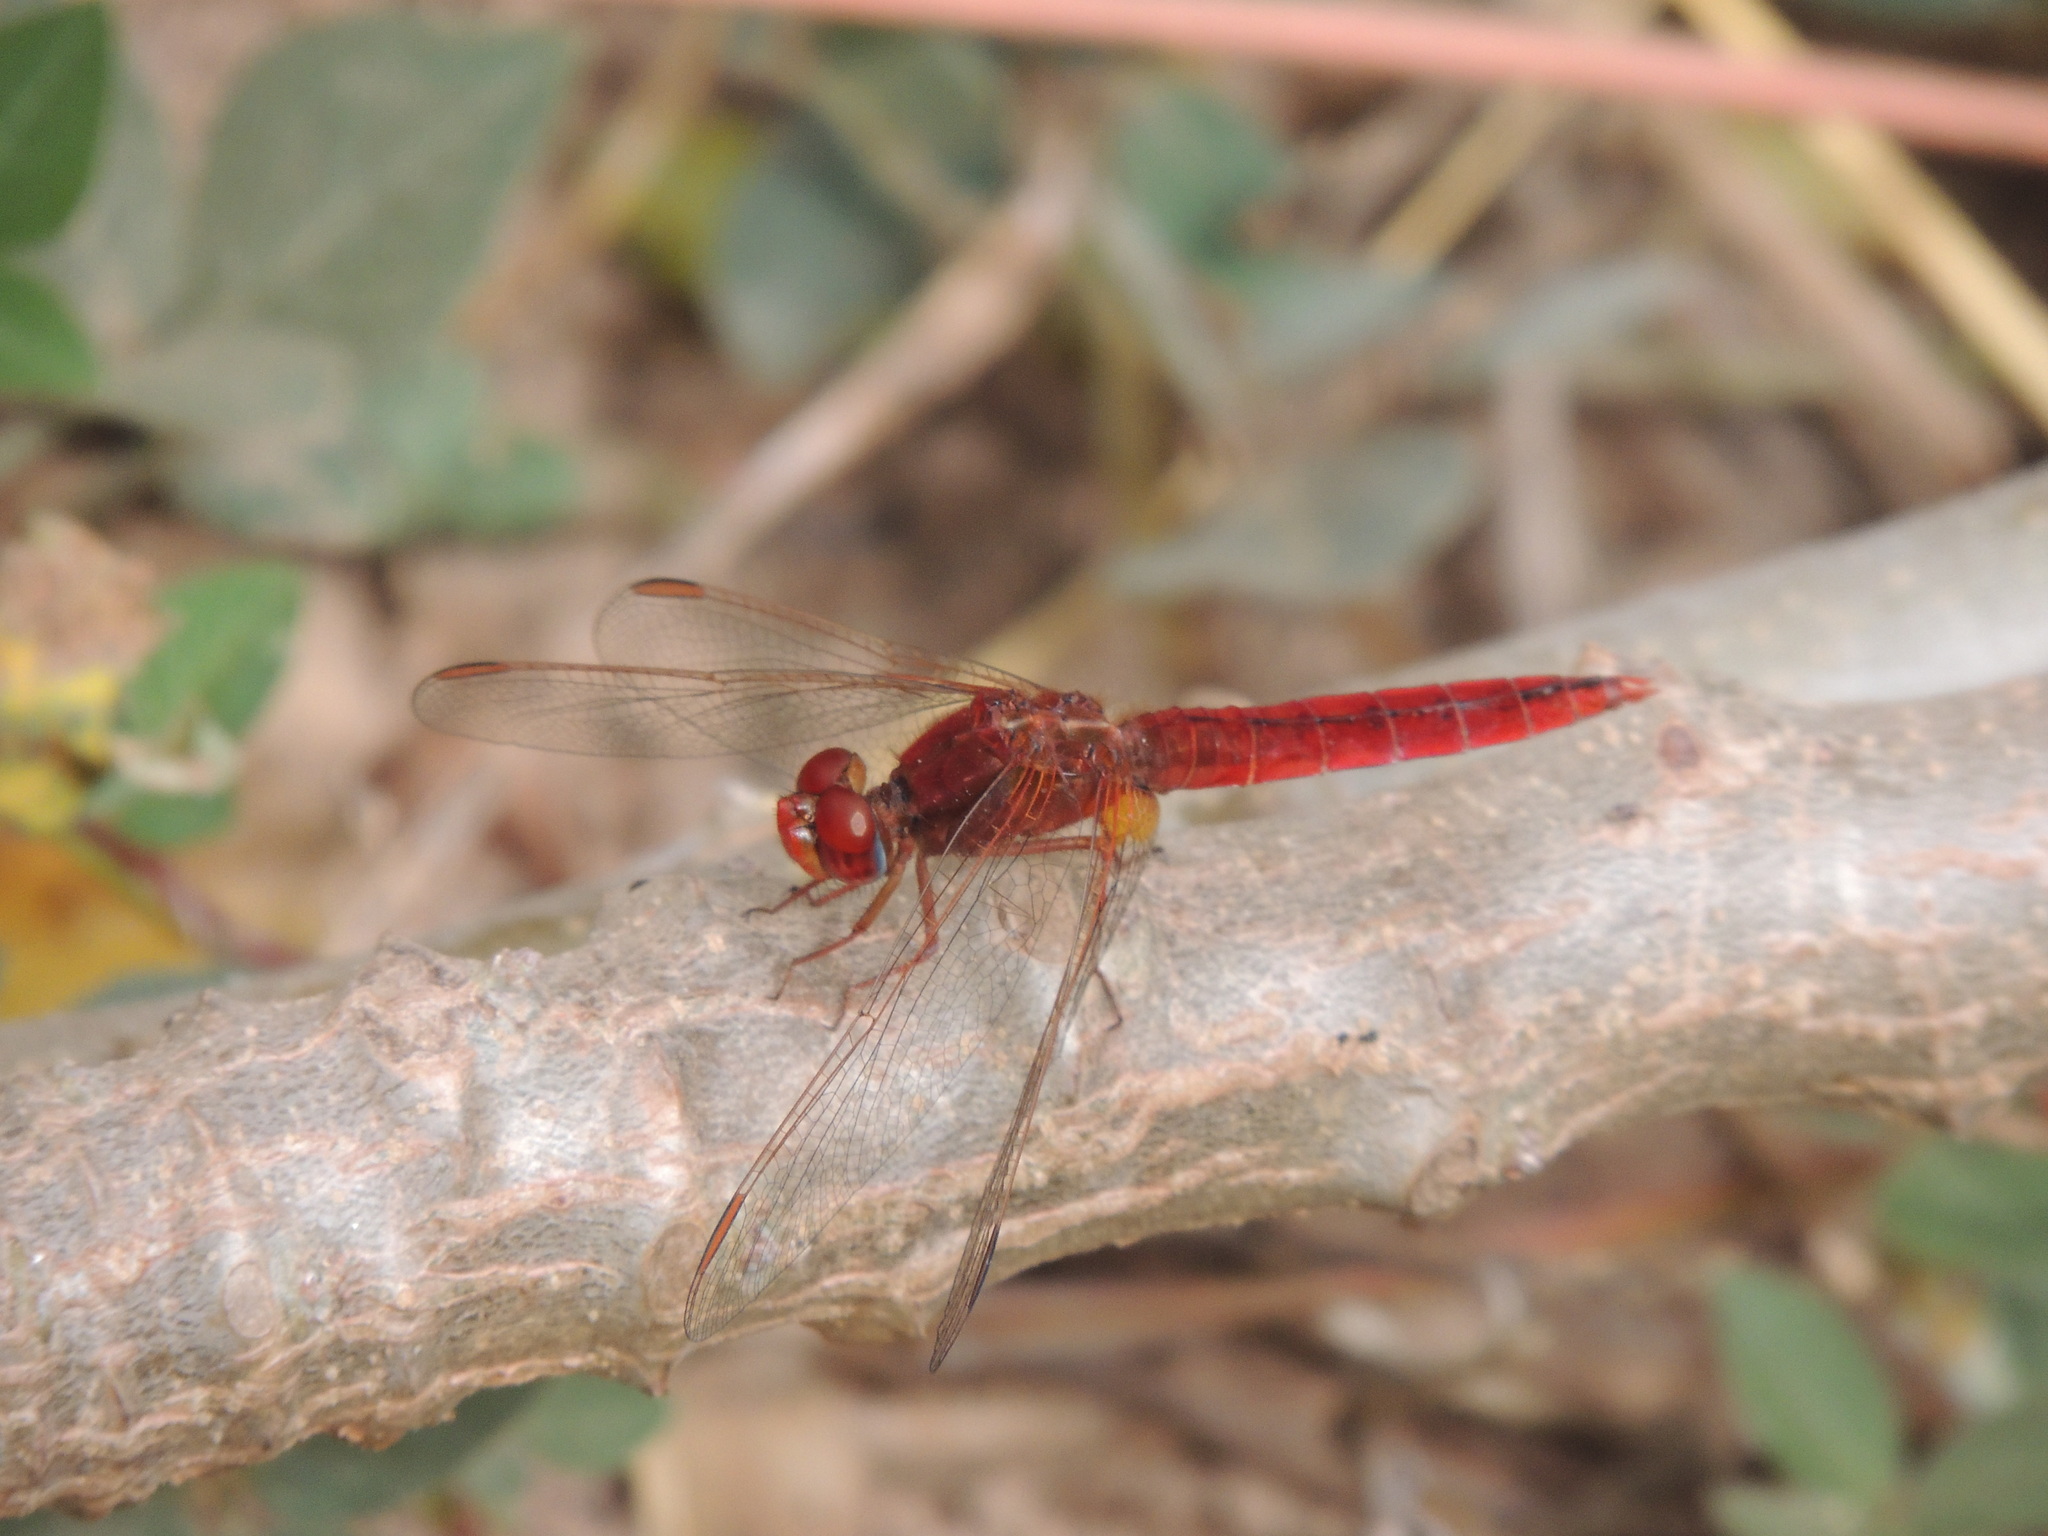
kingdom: Animalia
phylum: Arthropoda
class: Insecta
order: Odonata
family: Libellulidae
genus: Crocothemis
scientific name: Crocothemis erythraea
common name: Scarlet dragonfly
